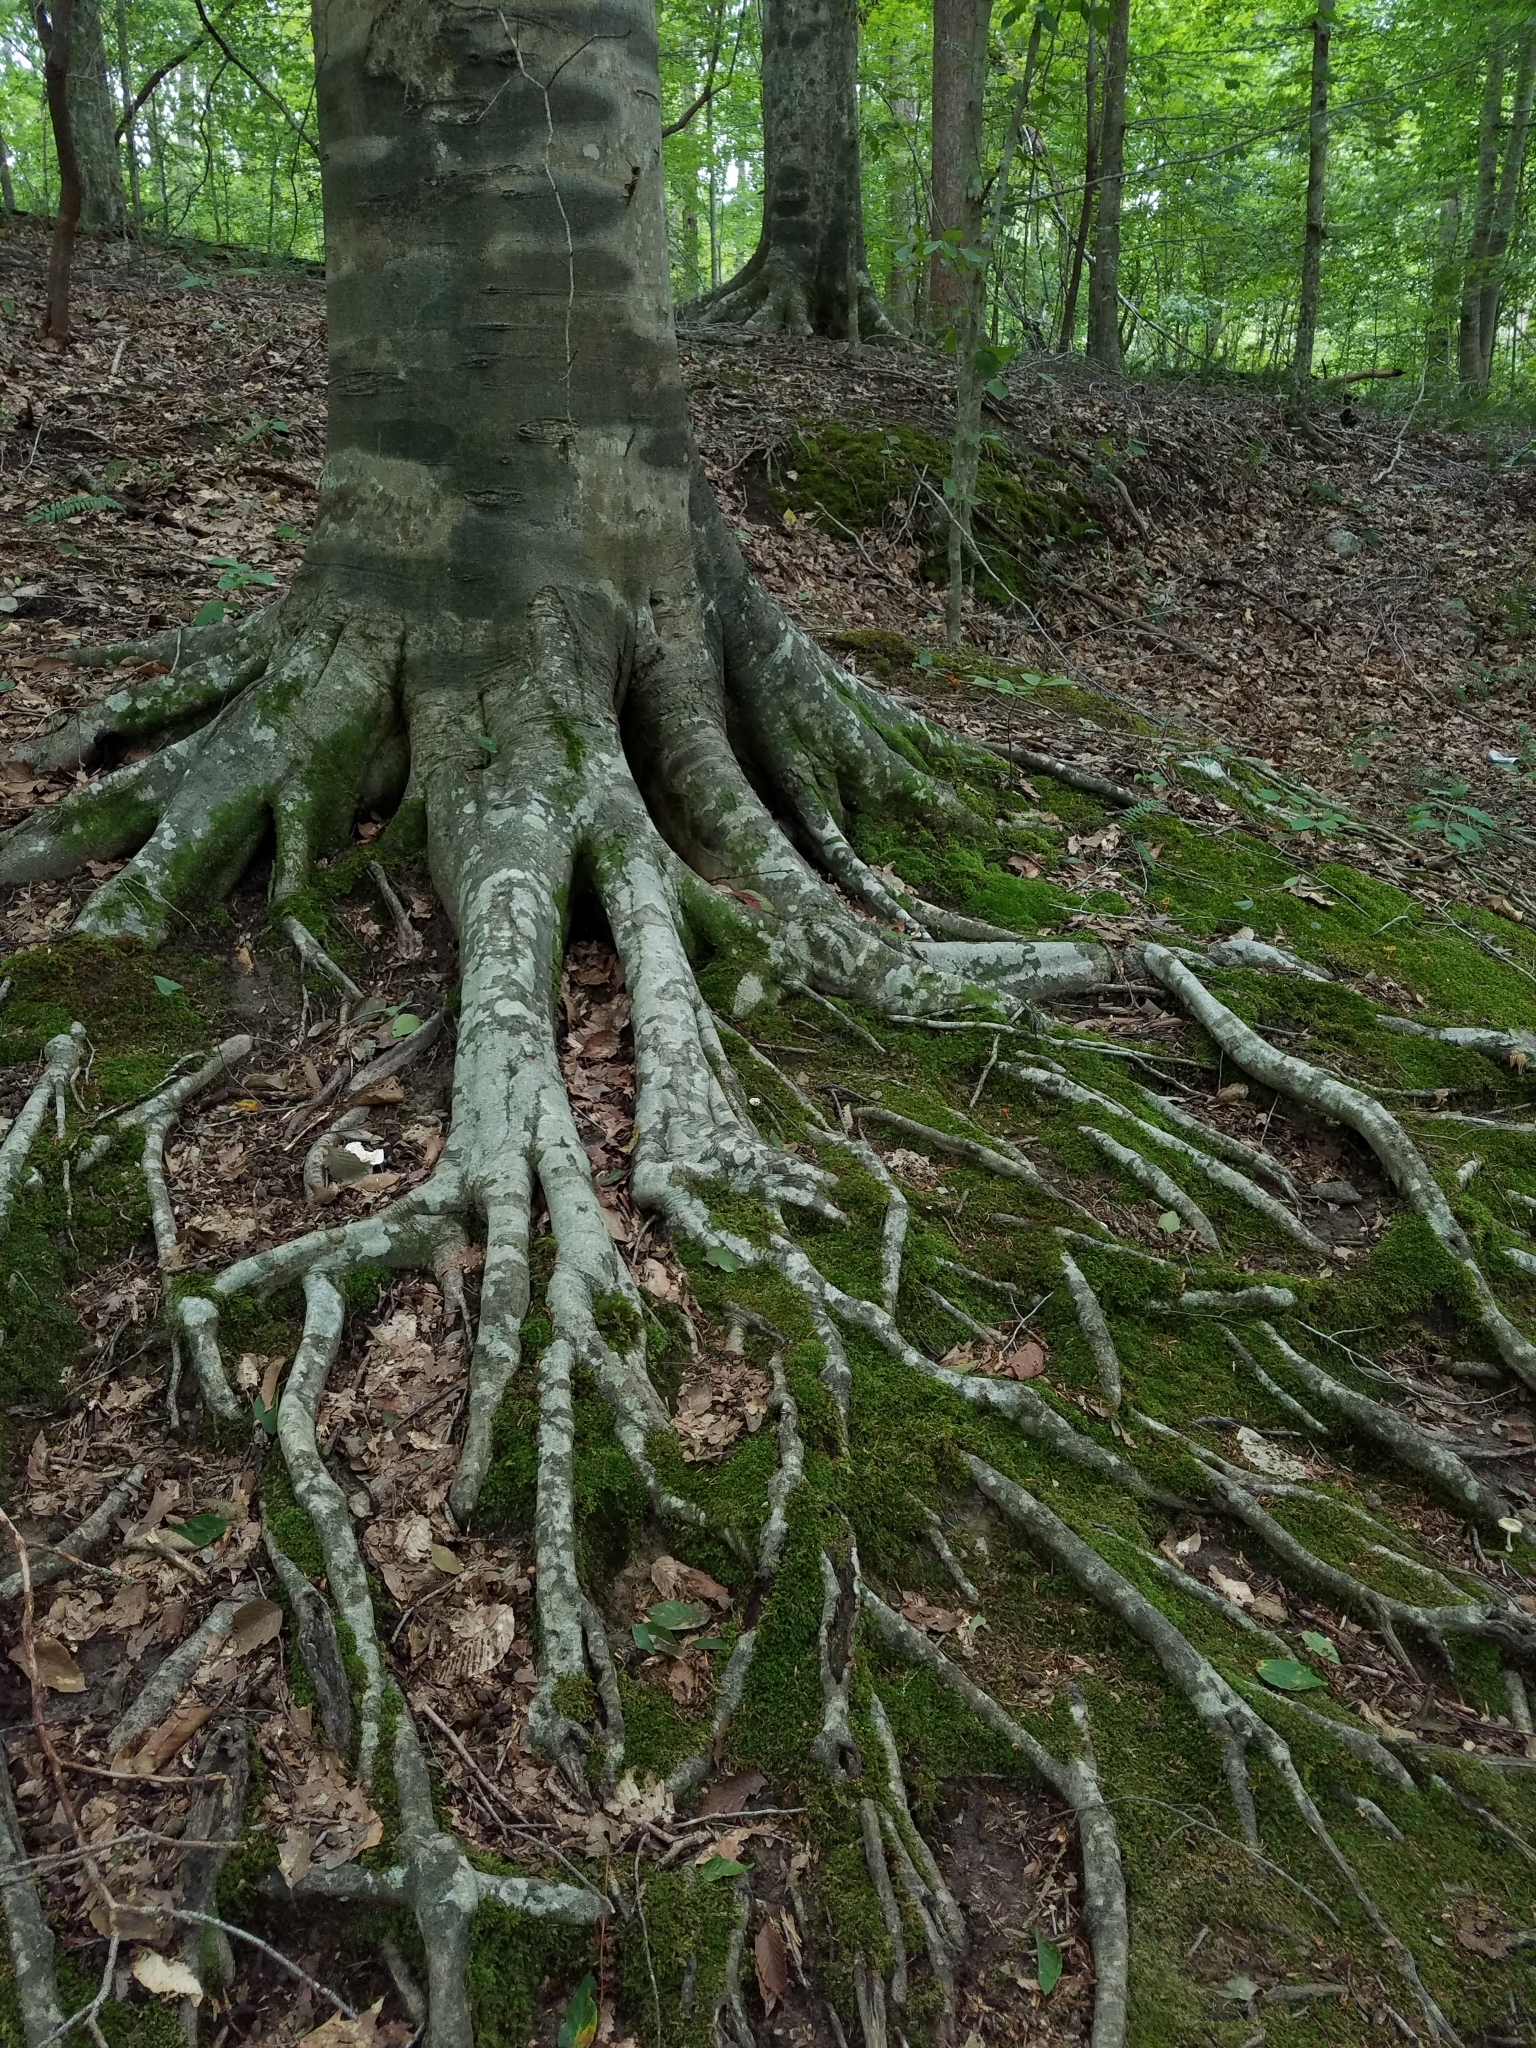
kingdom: Plantae
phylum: Tracheophyta
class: Magnoliopsida
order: Fagales
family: Fagaceae
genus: Fagus
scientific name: Fagus grandifolia
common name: American beech
